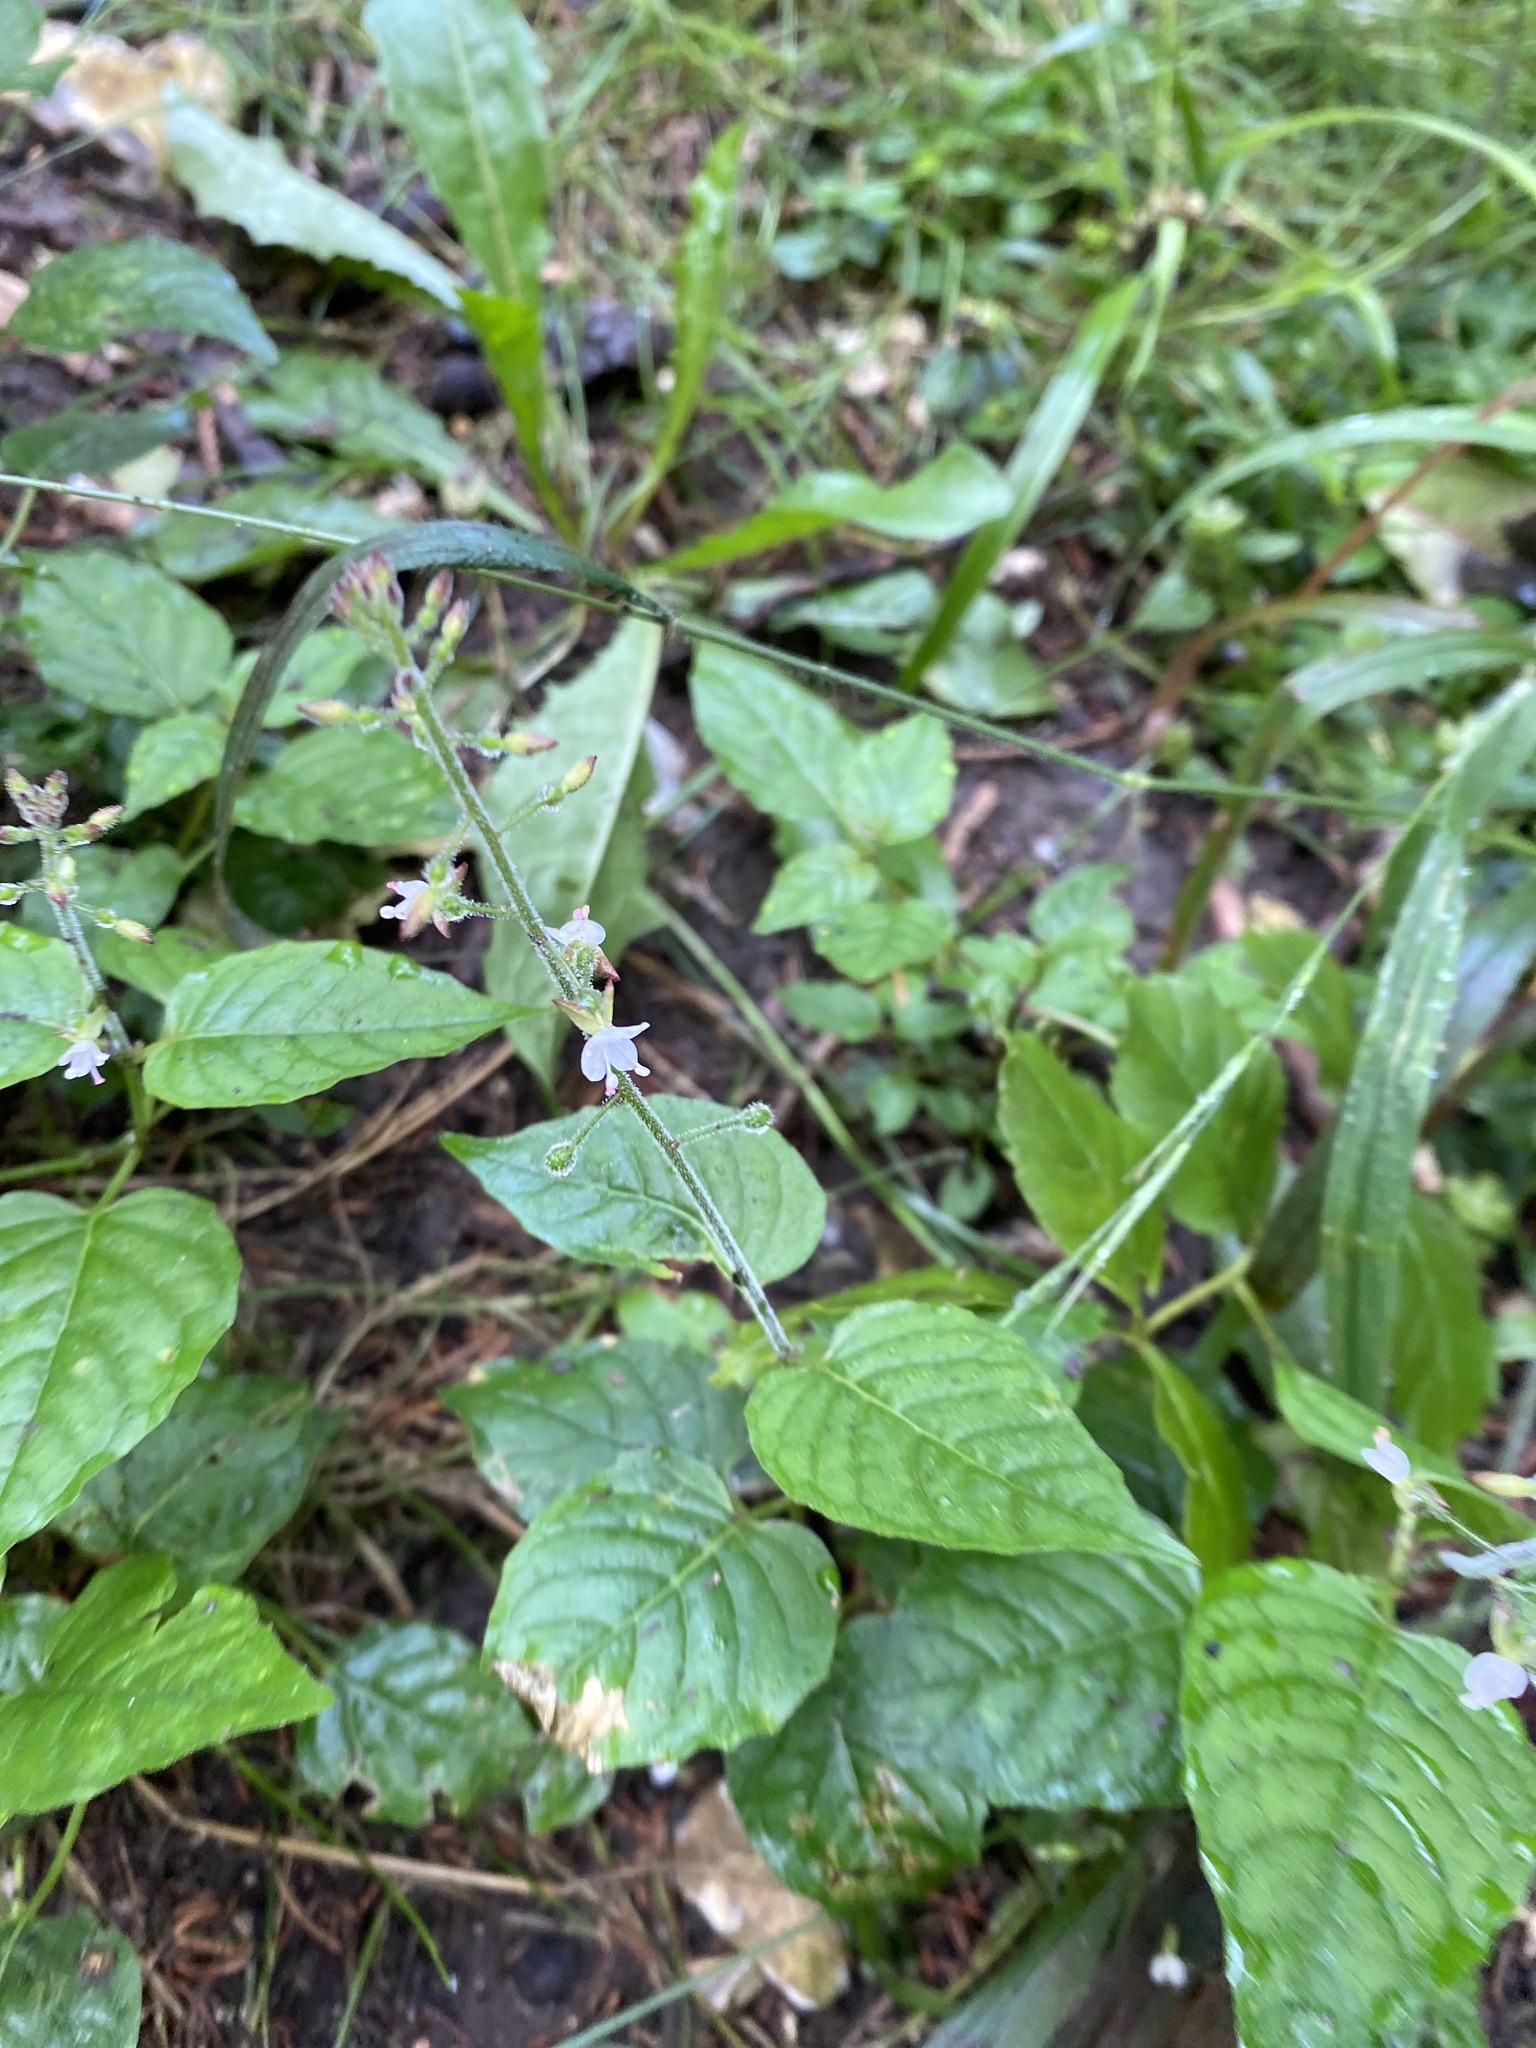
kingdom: Plantae
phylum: Tracheophyta
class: Magnoliopsida
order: Myrtales
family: Onagraceae
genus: Circaea
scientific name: Circaea lutetiana
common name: Enchanter's-nightshade
